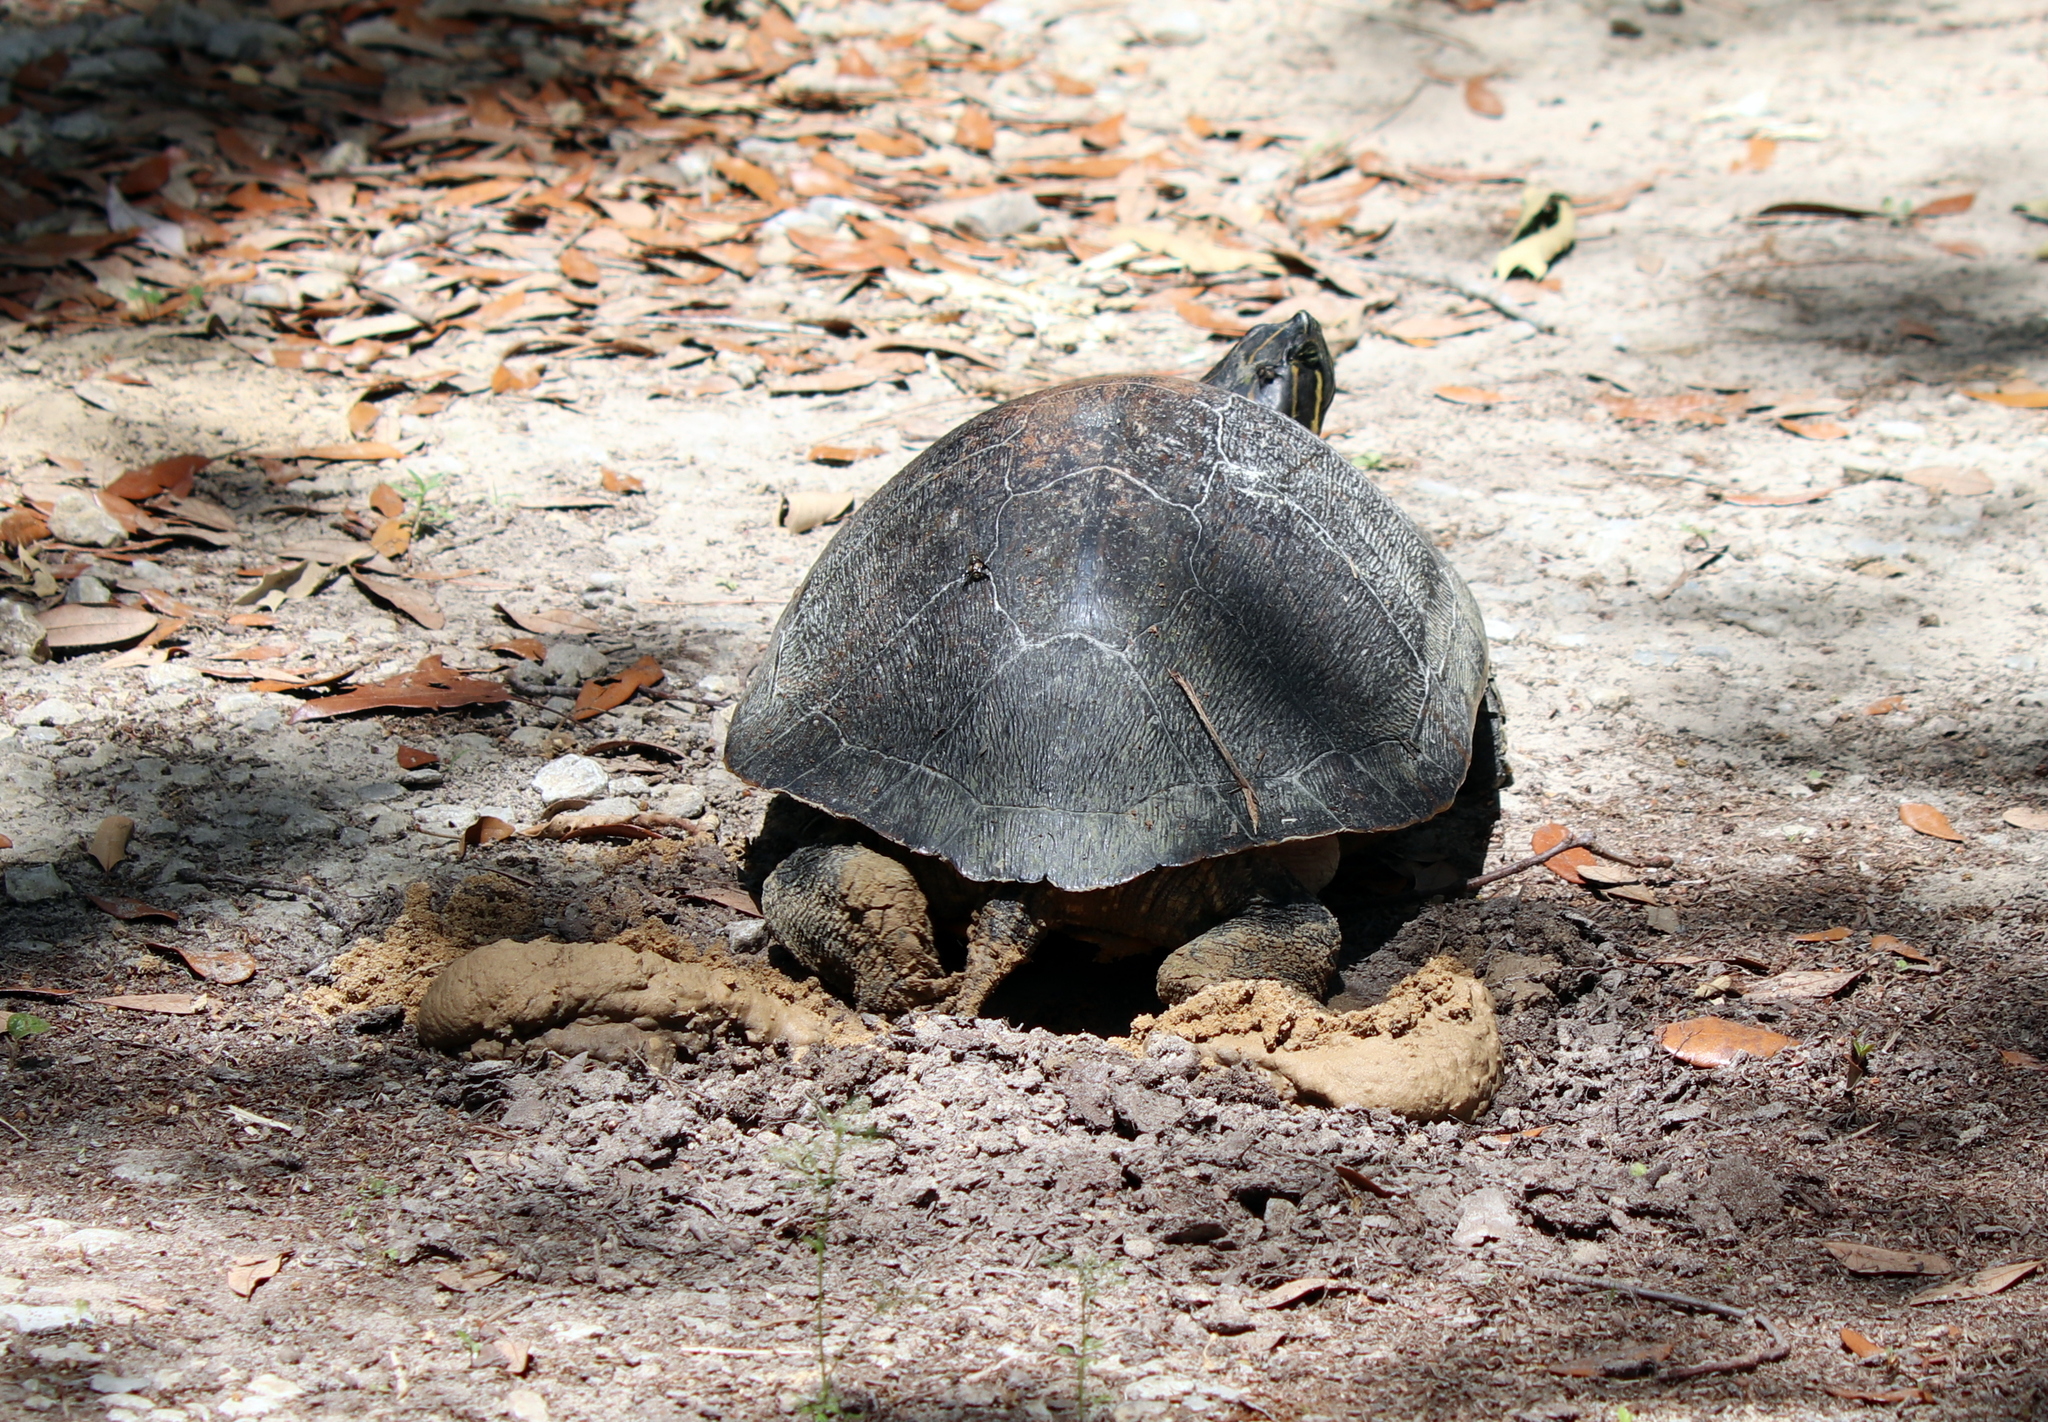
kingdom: Animalia
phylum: Chordata
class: Testudines
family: Emydidae
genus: Pseudemys
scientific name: Pseudemys alabamensis
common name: Alabama red-bellied turtle
